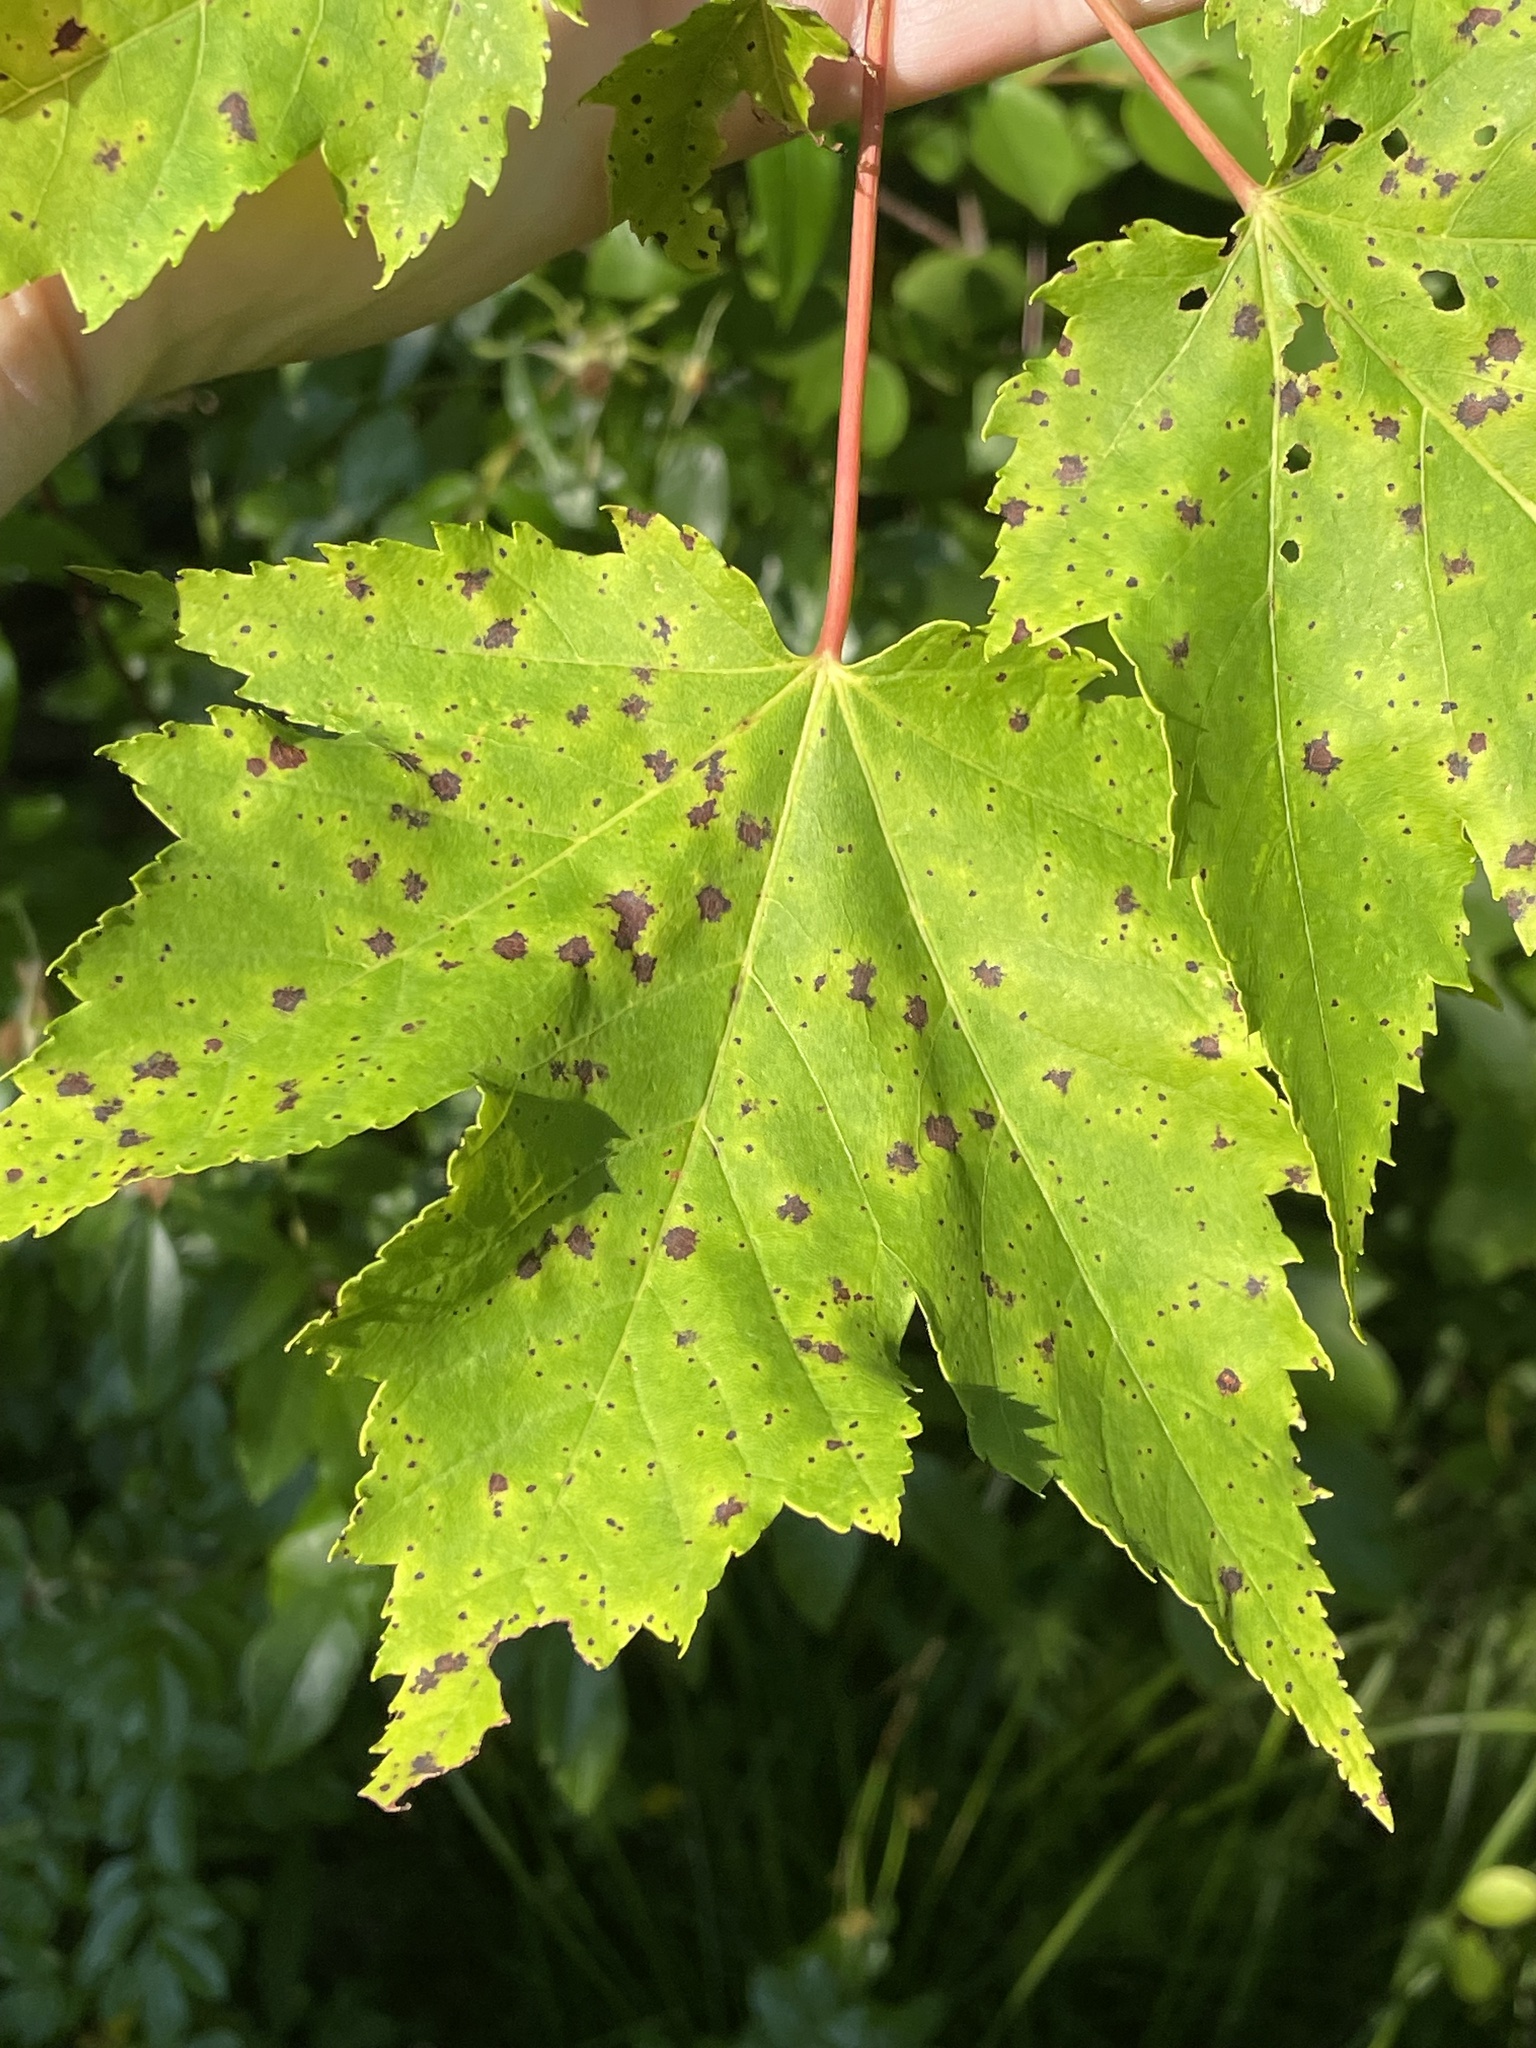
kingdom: Plantae
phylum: Tracheophyta
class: Magnoliopsida
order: Sapindales
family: Sapindaceae
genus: Acer
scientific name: Acer rubrum
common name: Red maple
